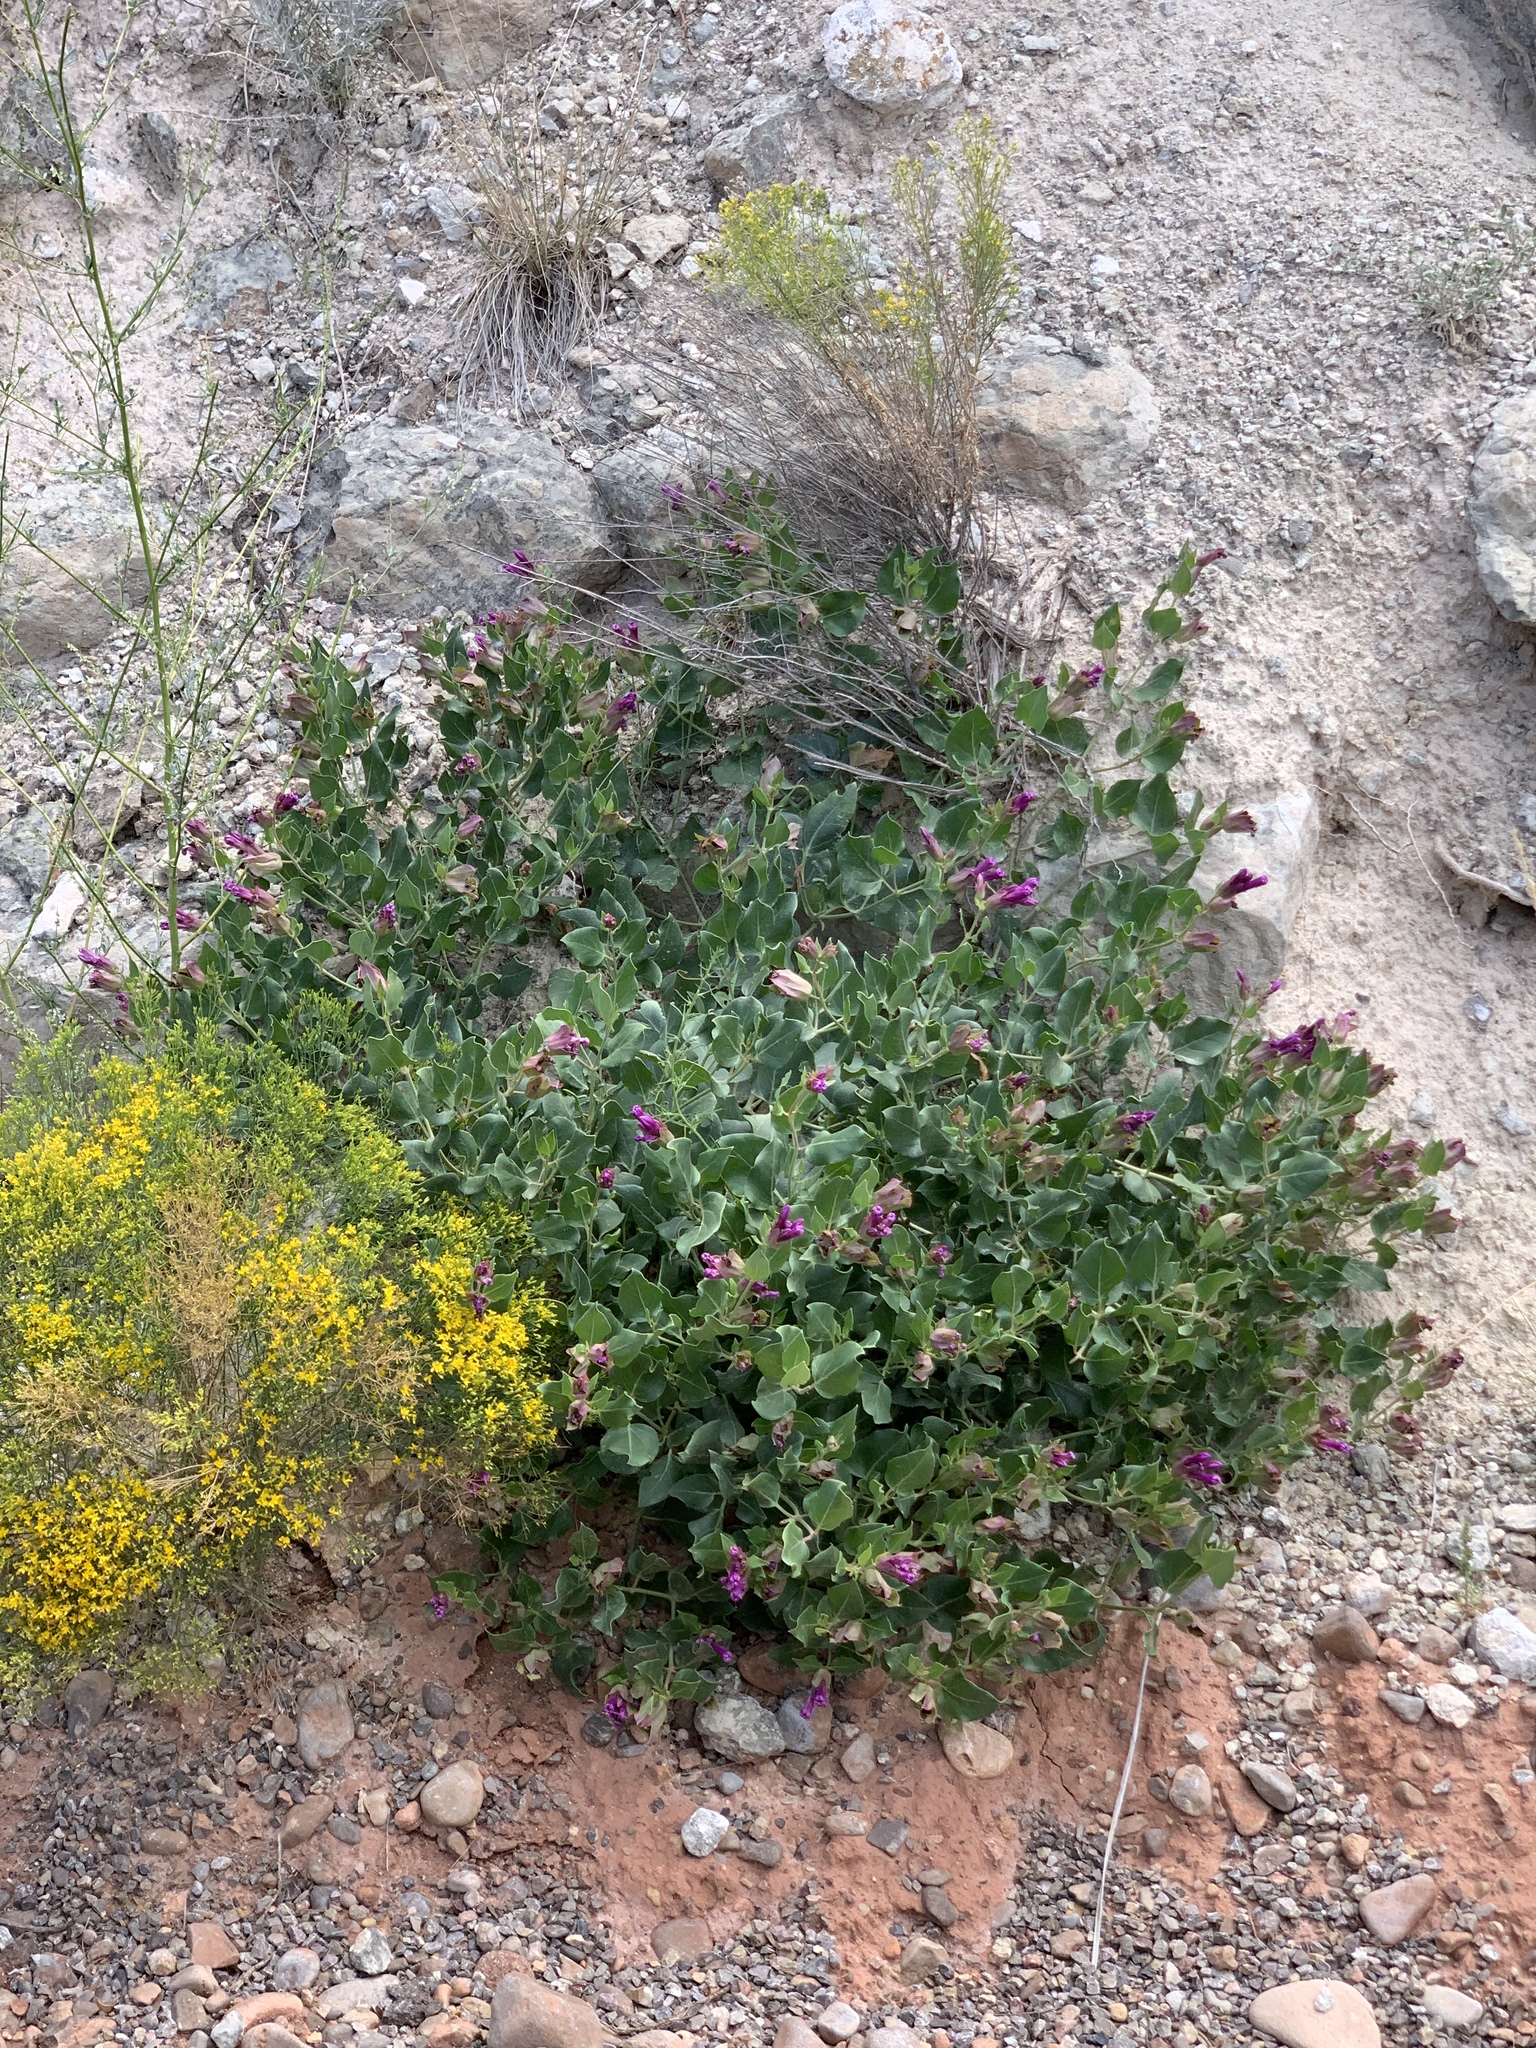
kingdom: Plantae
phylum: Tracheophyta
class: Magnoliopsida
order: Caryophyllales
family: Nyctaginaceae
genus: Mirabilis
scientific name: Mirabilis multiflora
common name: Froebel's four-o'clock
